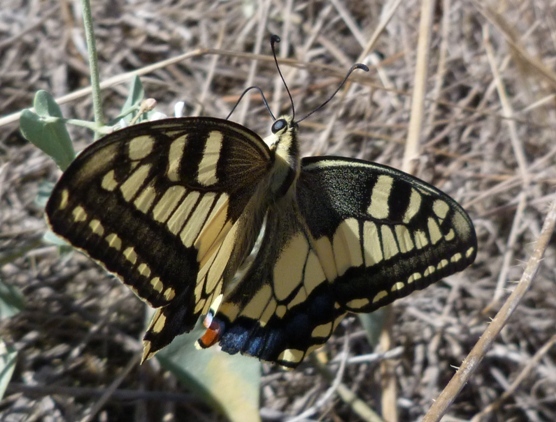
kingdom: Animalia
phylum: Arthropoda
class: Insecta
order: Lepidoptera
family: Papilionidae
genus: Papilio
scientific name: Papilio machaon
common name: Swallowtail
